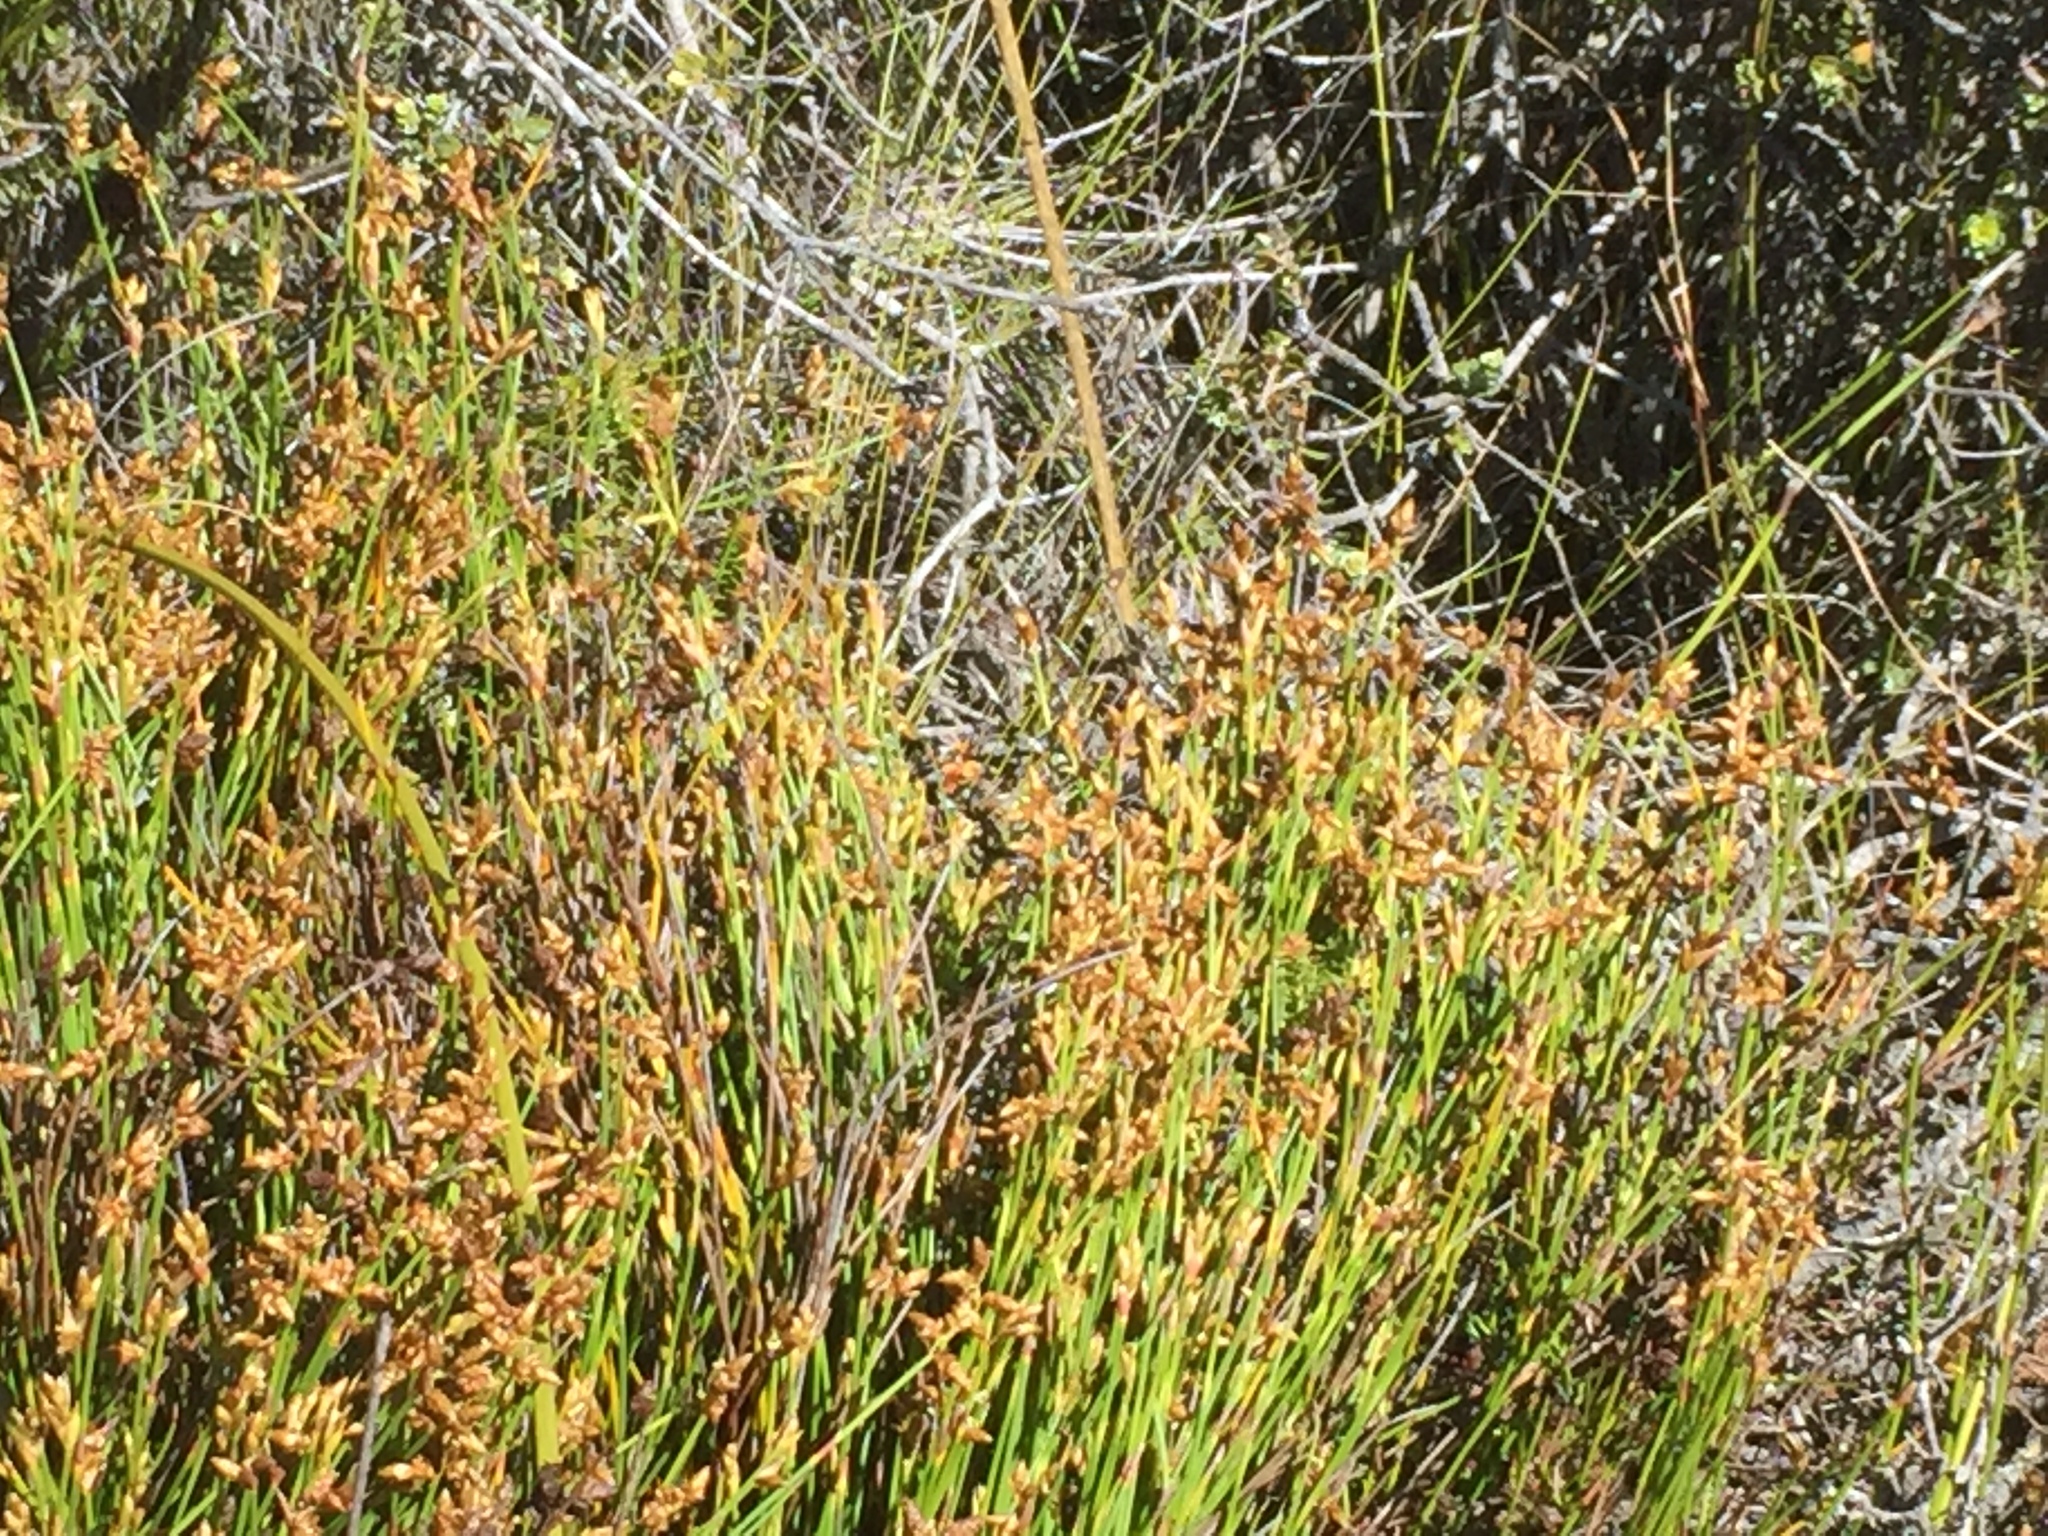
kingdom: Plantae
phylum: Tracheophyta
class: Liliopsida
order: Poales
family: Restionaceae
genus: Mastersiella
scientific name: Mastersiella digitata
